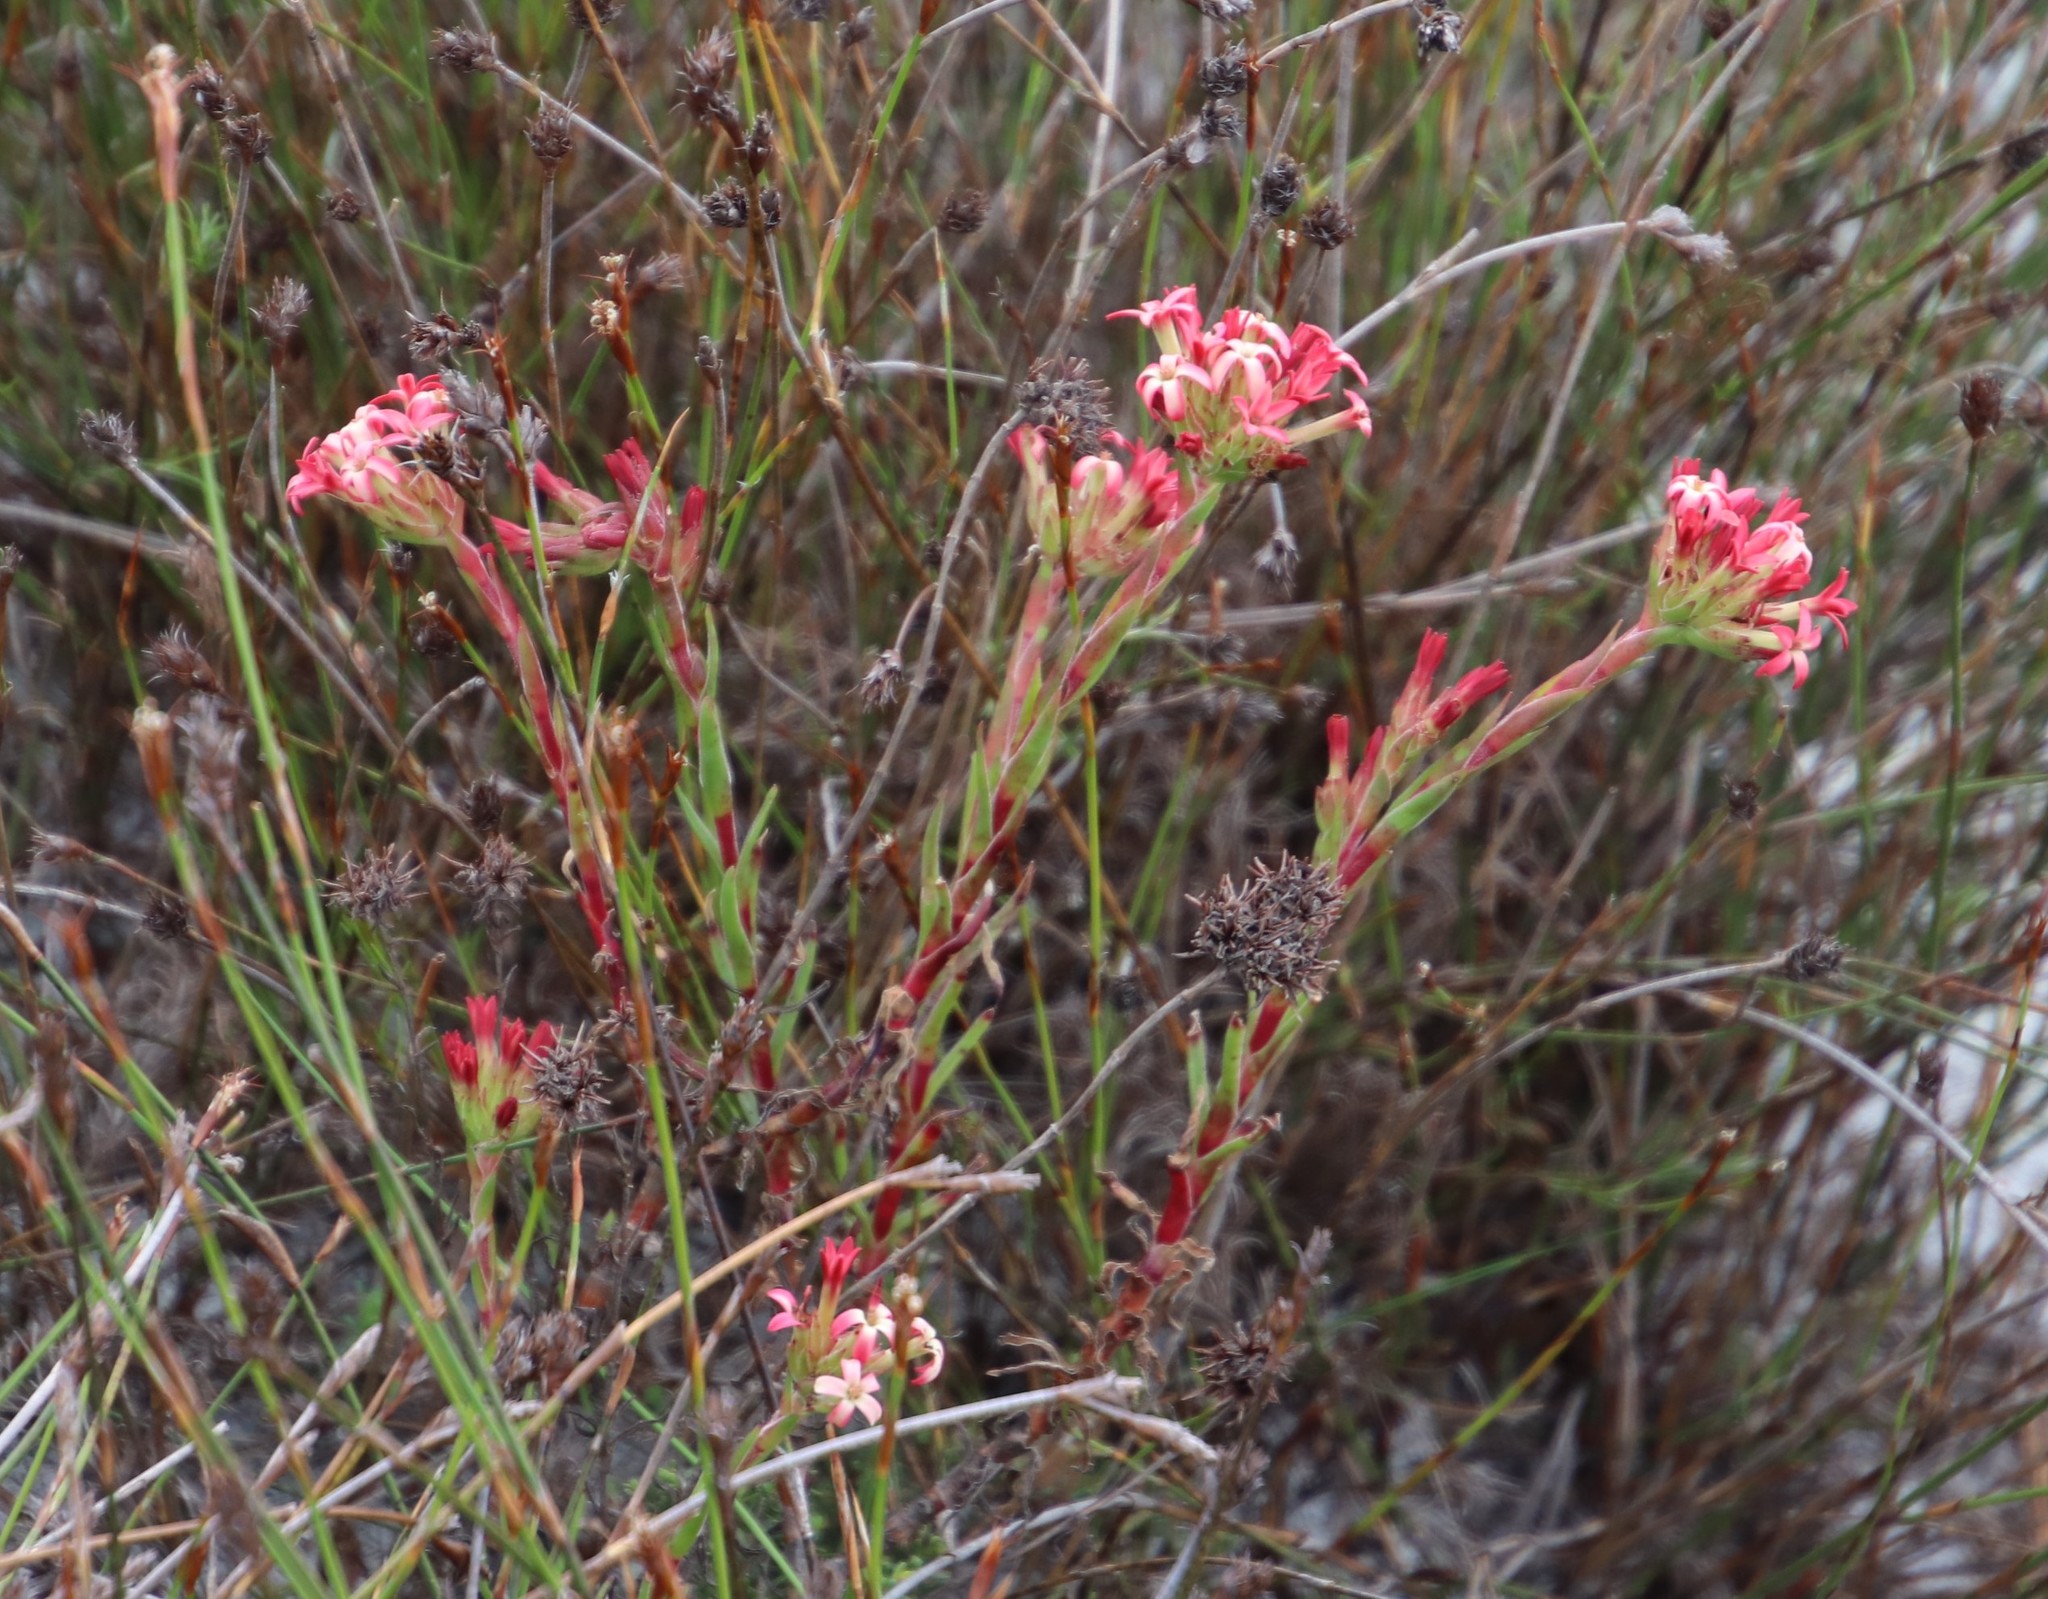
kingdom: Plantae
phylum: Tracheophyta
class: Magnoliopsida
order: Saxifragales
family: Crassulaceae
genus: Crassula
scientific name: Crassula fascicularis
